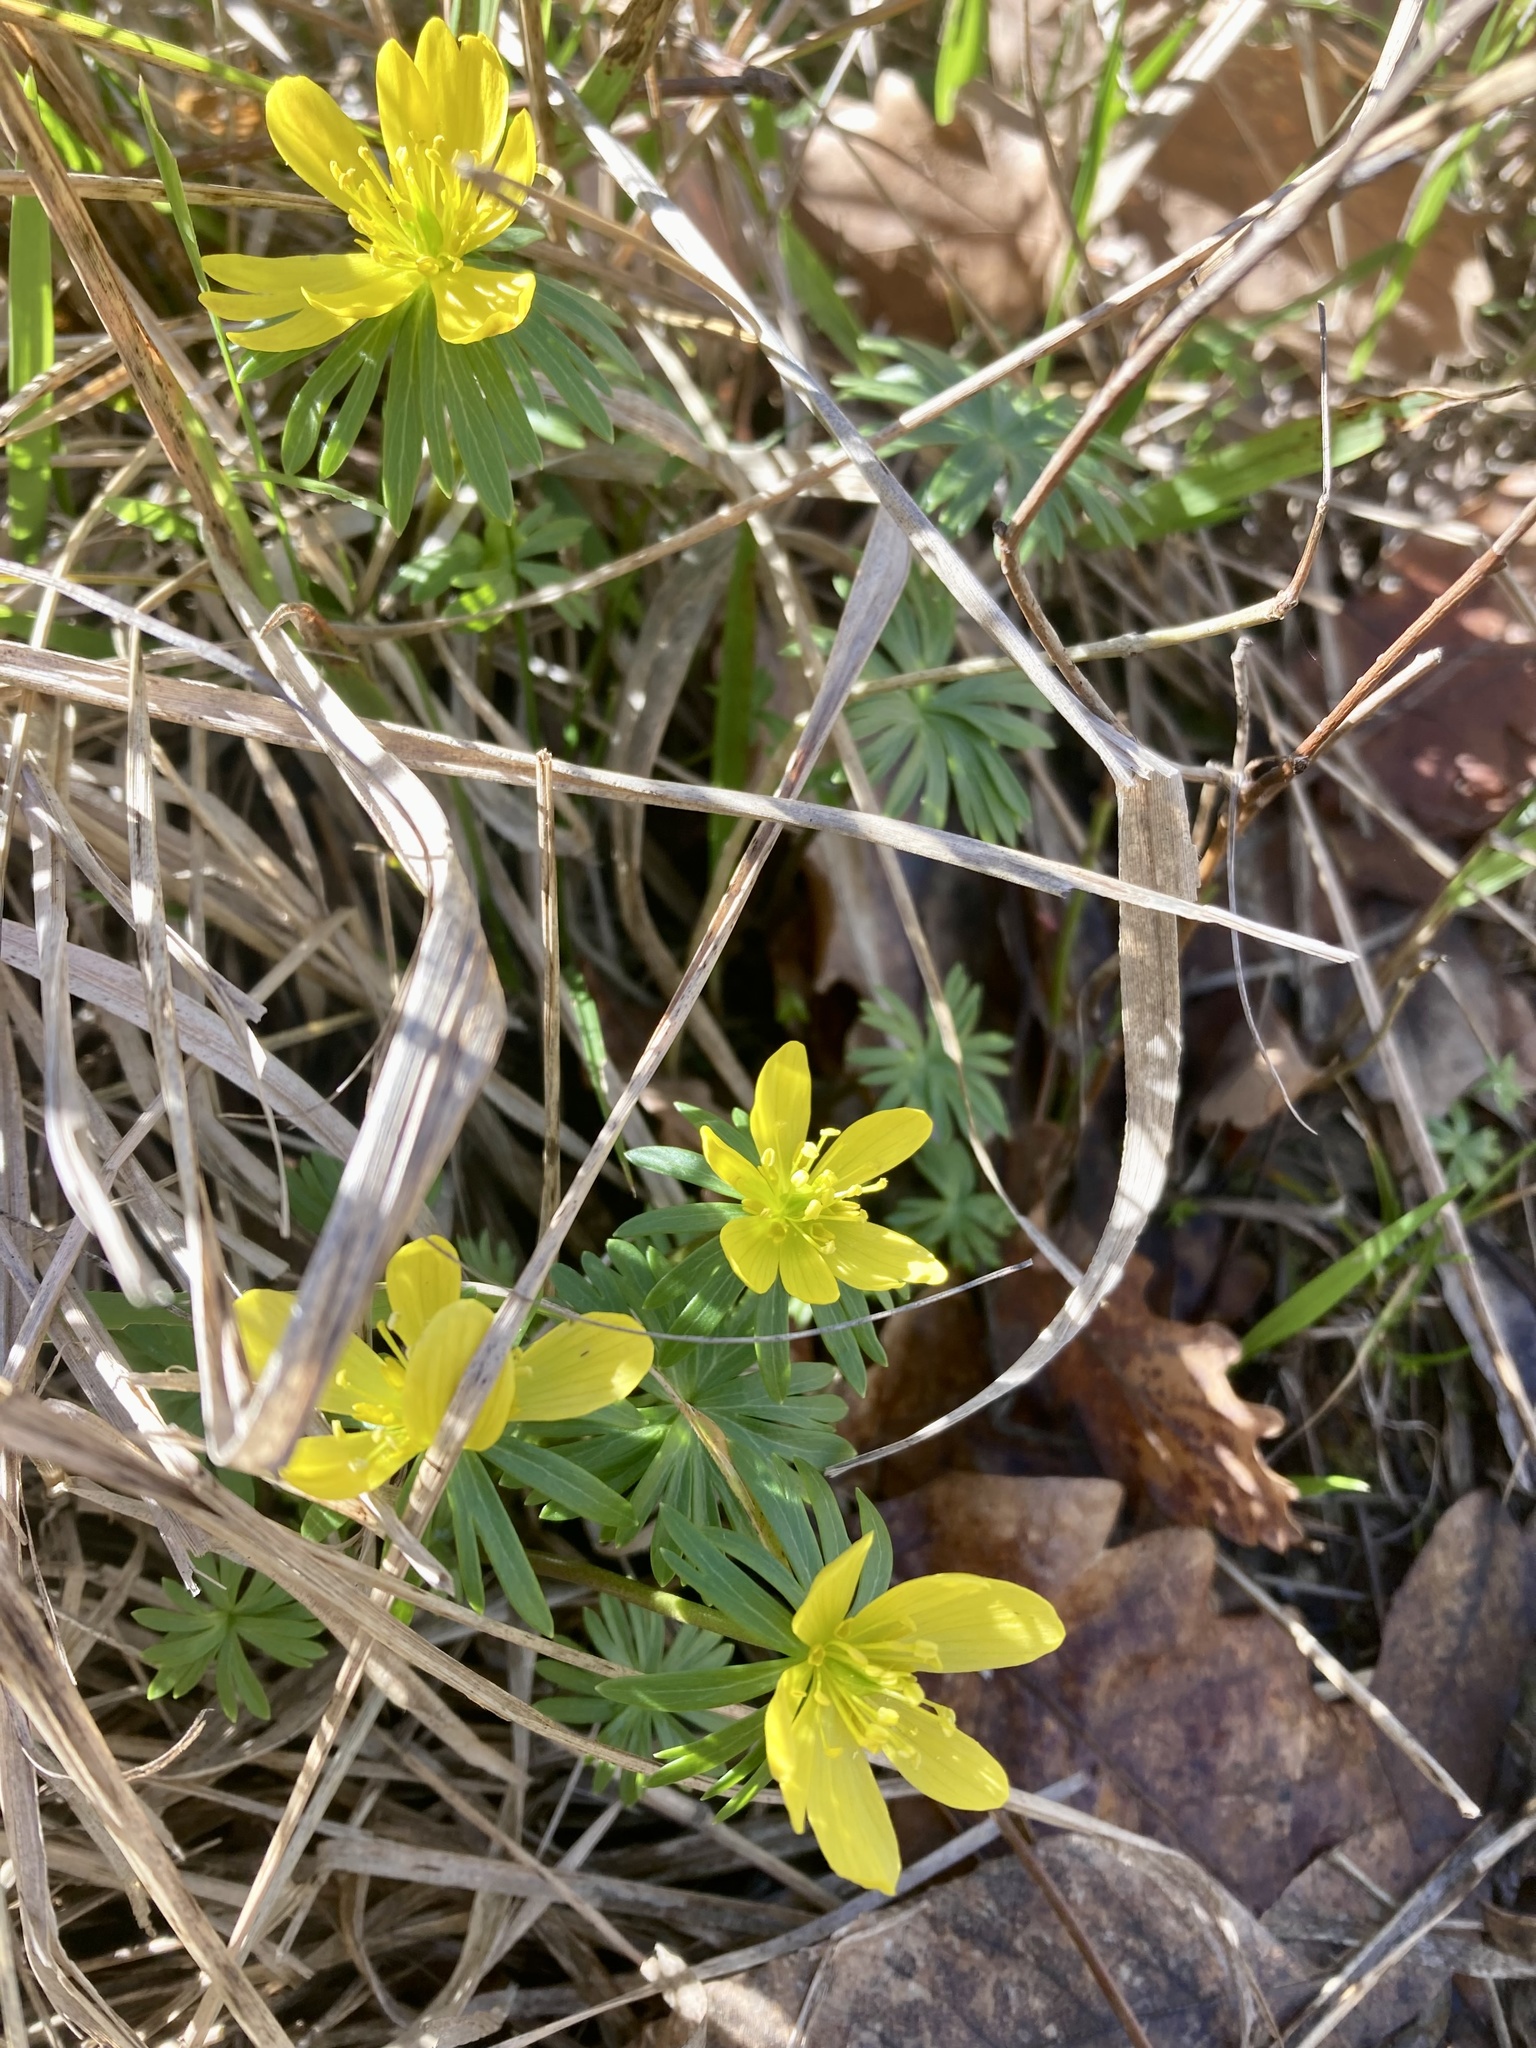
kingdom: Plantae
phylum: Tracheophyta
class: Magnoliopsida
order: Ranunculales
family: Ranunculaceae
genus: Eranthis
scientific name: Eranthis hyemalis
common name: Winter aconite
